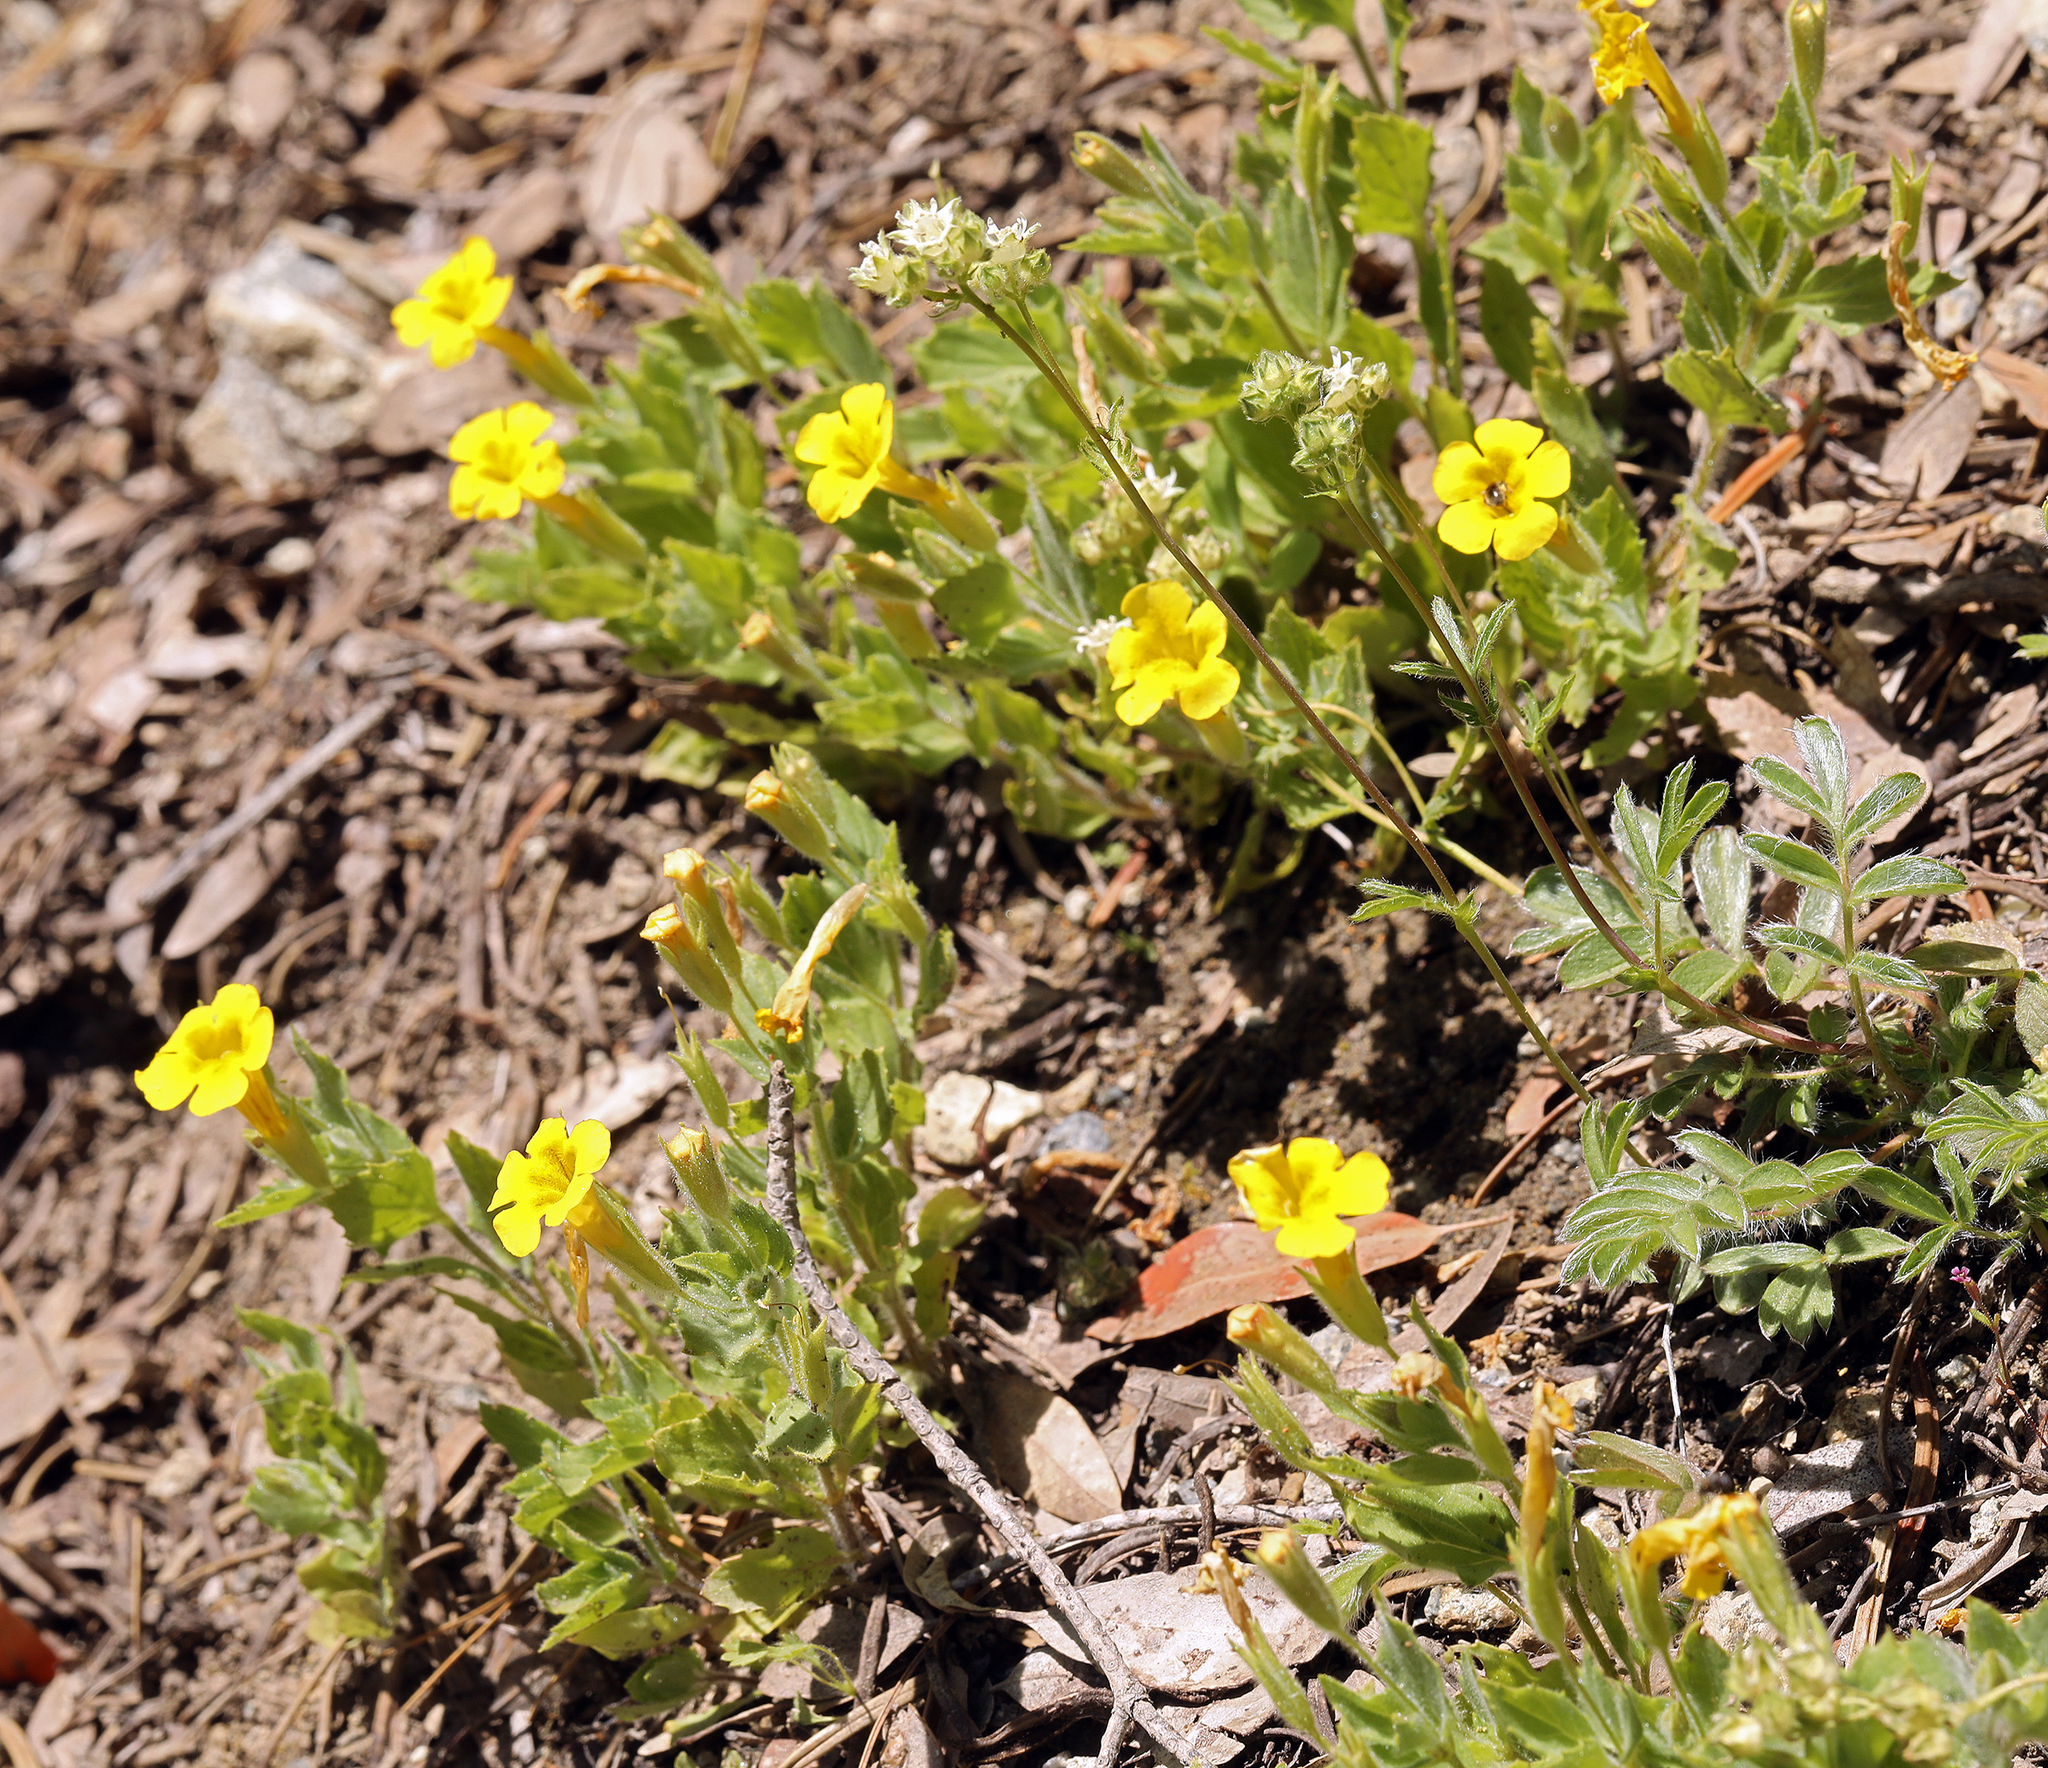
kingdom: Plantae
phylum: Tracheophyta
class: Magnoliopsida
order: Lamiales
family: Phrymaceae
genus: Erythranthe
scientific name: Erythranthe moschata
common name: Muskflower
